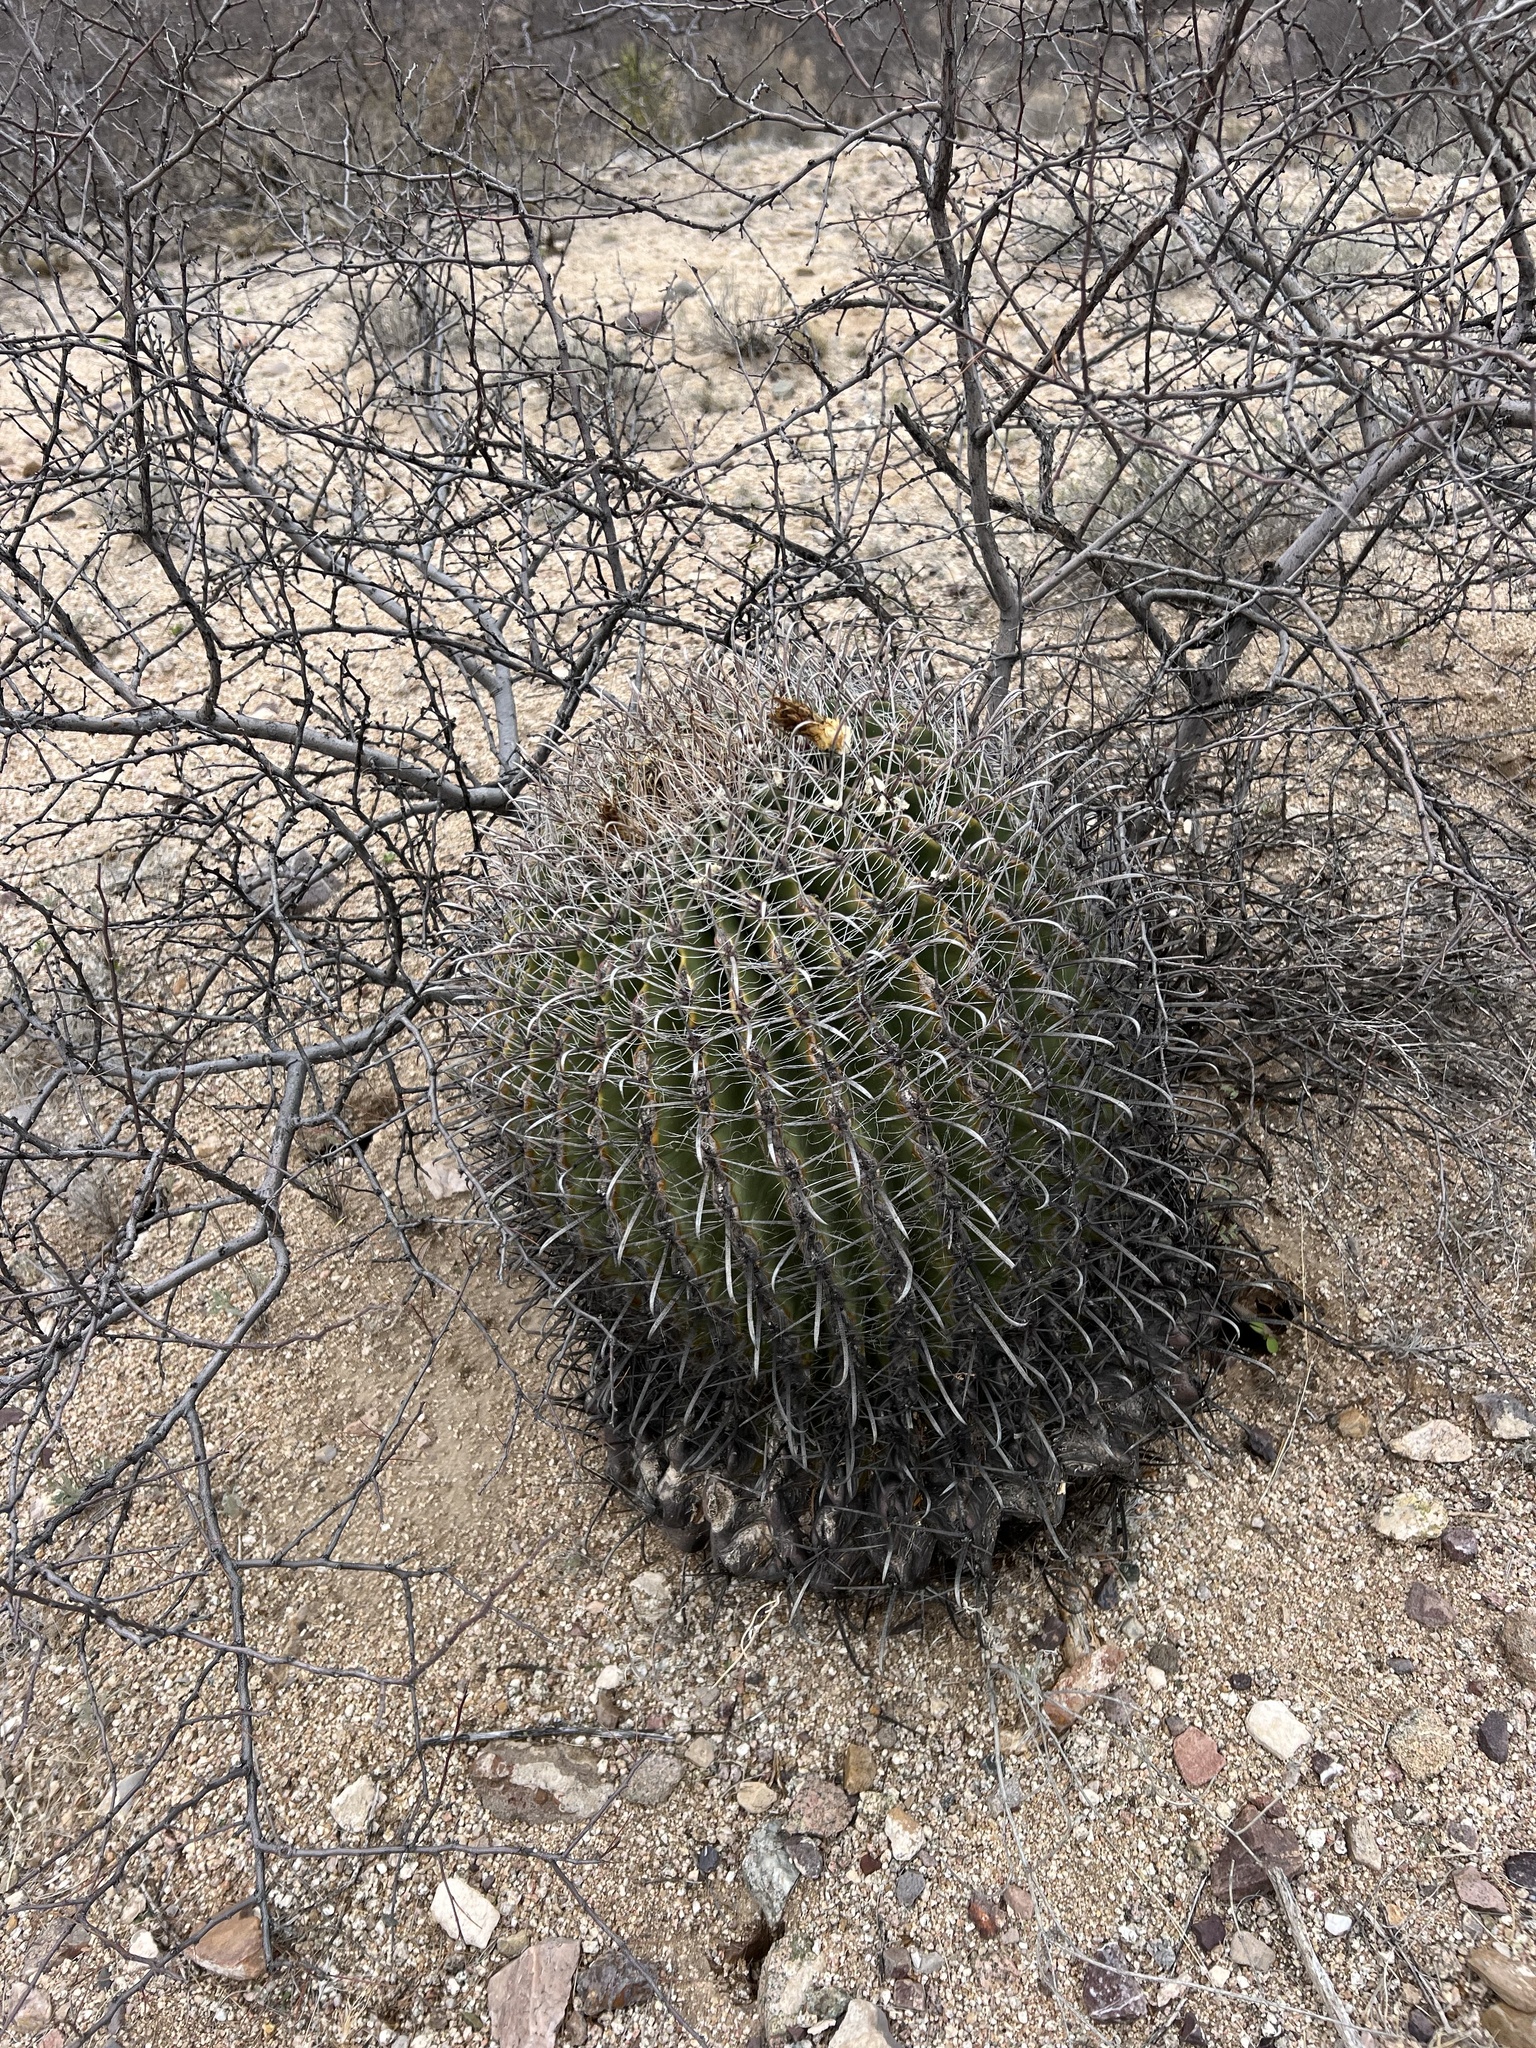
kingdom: Plantae
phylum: Tracheophyta
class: Magnoliopsida
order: Caryophyllales
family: Cactaceae
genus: Ferocactus
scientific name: Ferocactus wislizeni
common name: Candy barrel cactus
